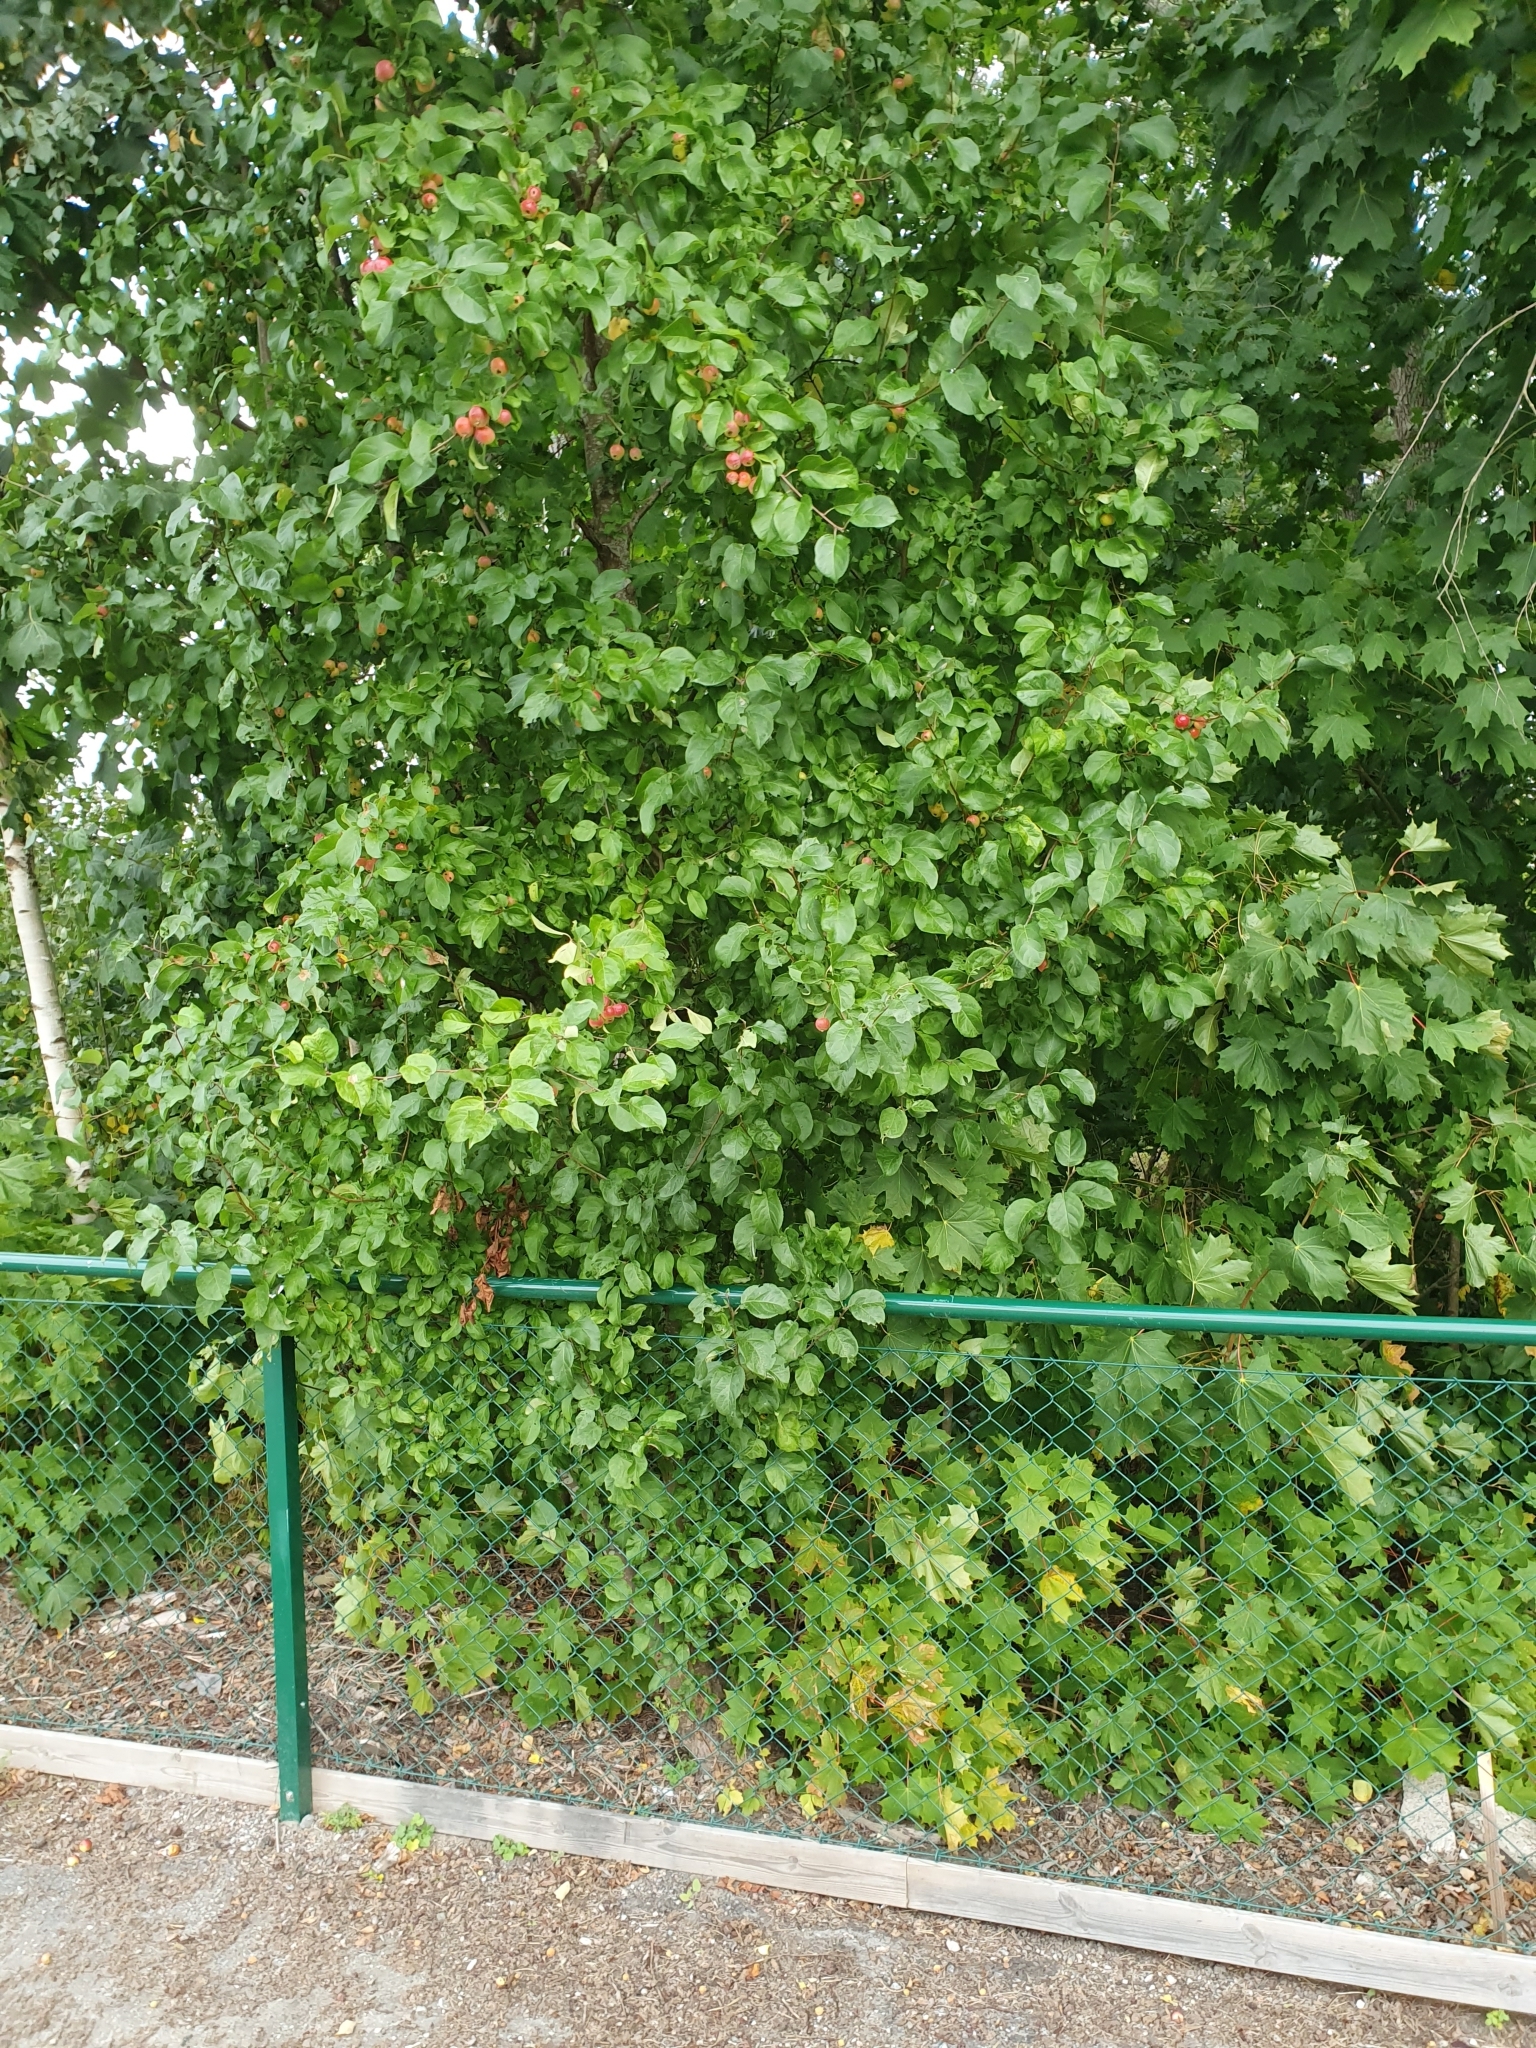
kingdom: Plantae
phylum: Tracheophyta
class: Magnoliopsida
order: Rosales
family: Rosaceae
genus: Malus
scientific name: Malus sylvestris
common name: Crab apple
